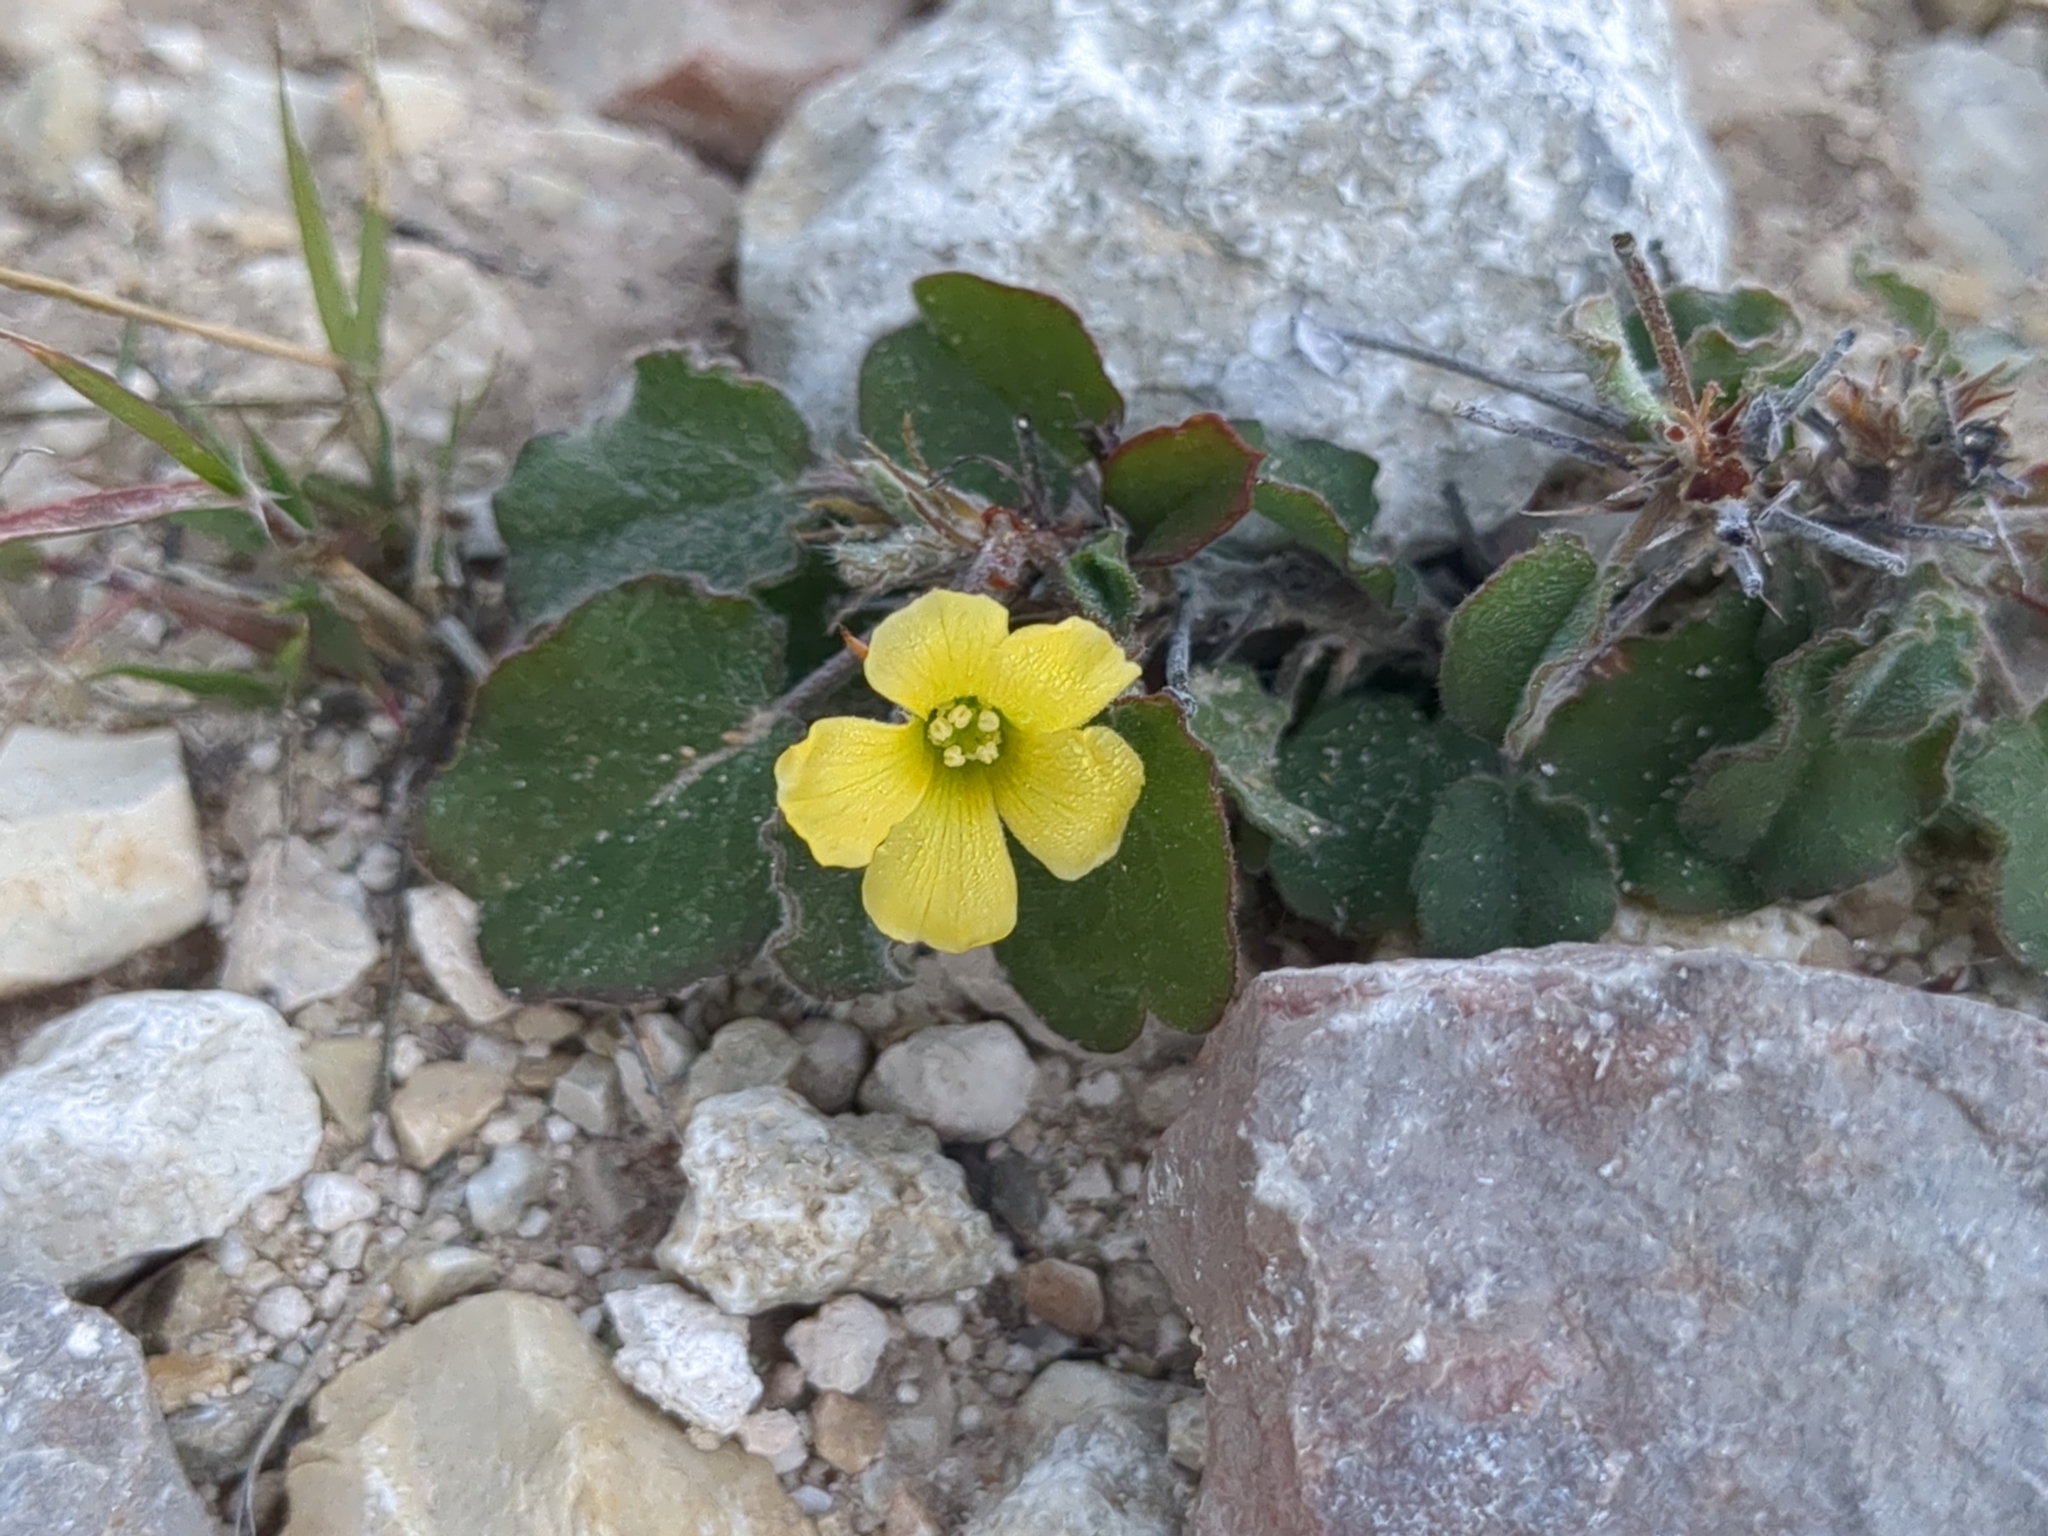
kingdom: Plantae
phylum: Tracheophyta
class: Magnoliopsida
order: Oxalidales
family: Oxalidaceae
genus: Oxalis
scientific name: Oxalis dichondrifolia
